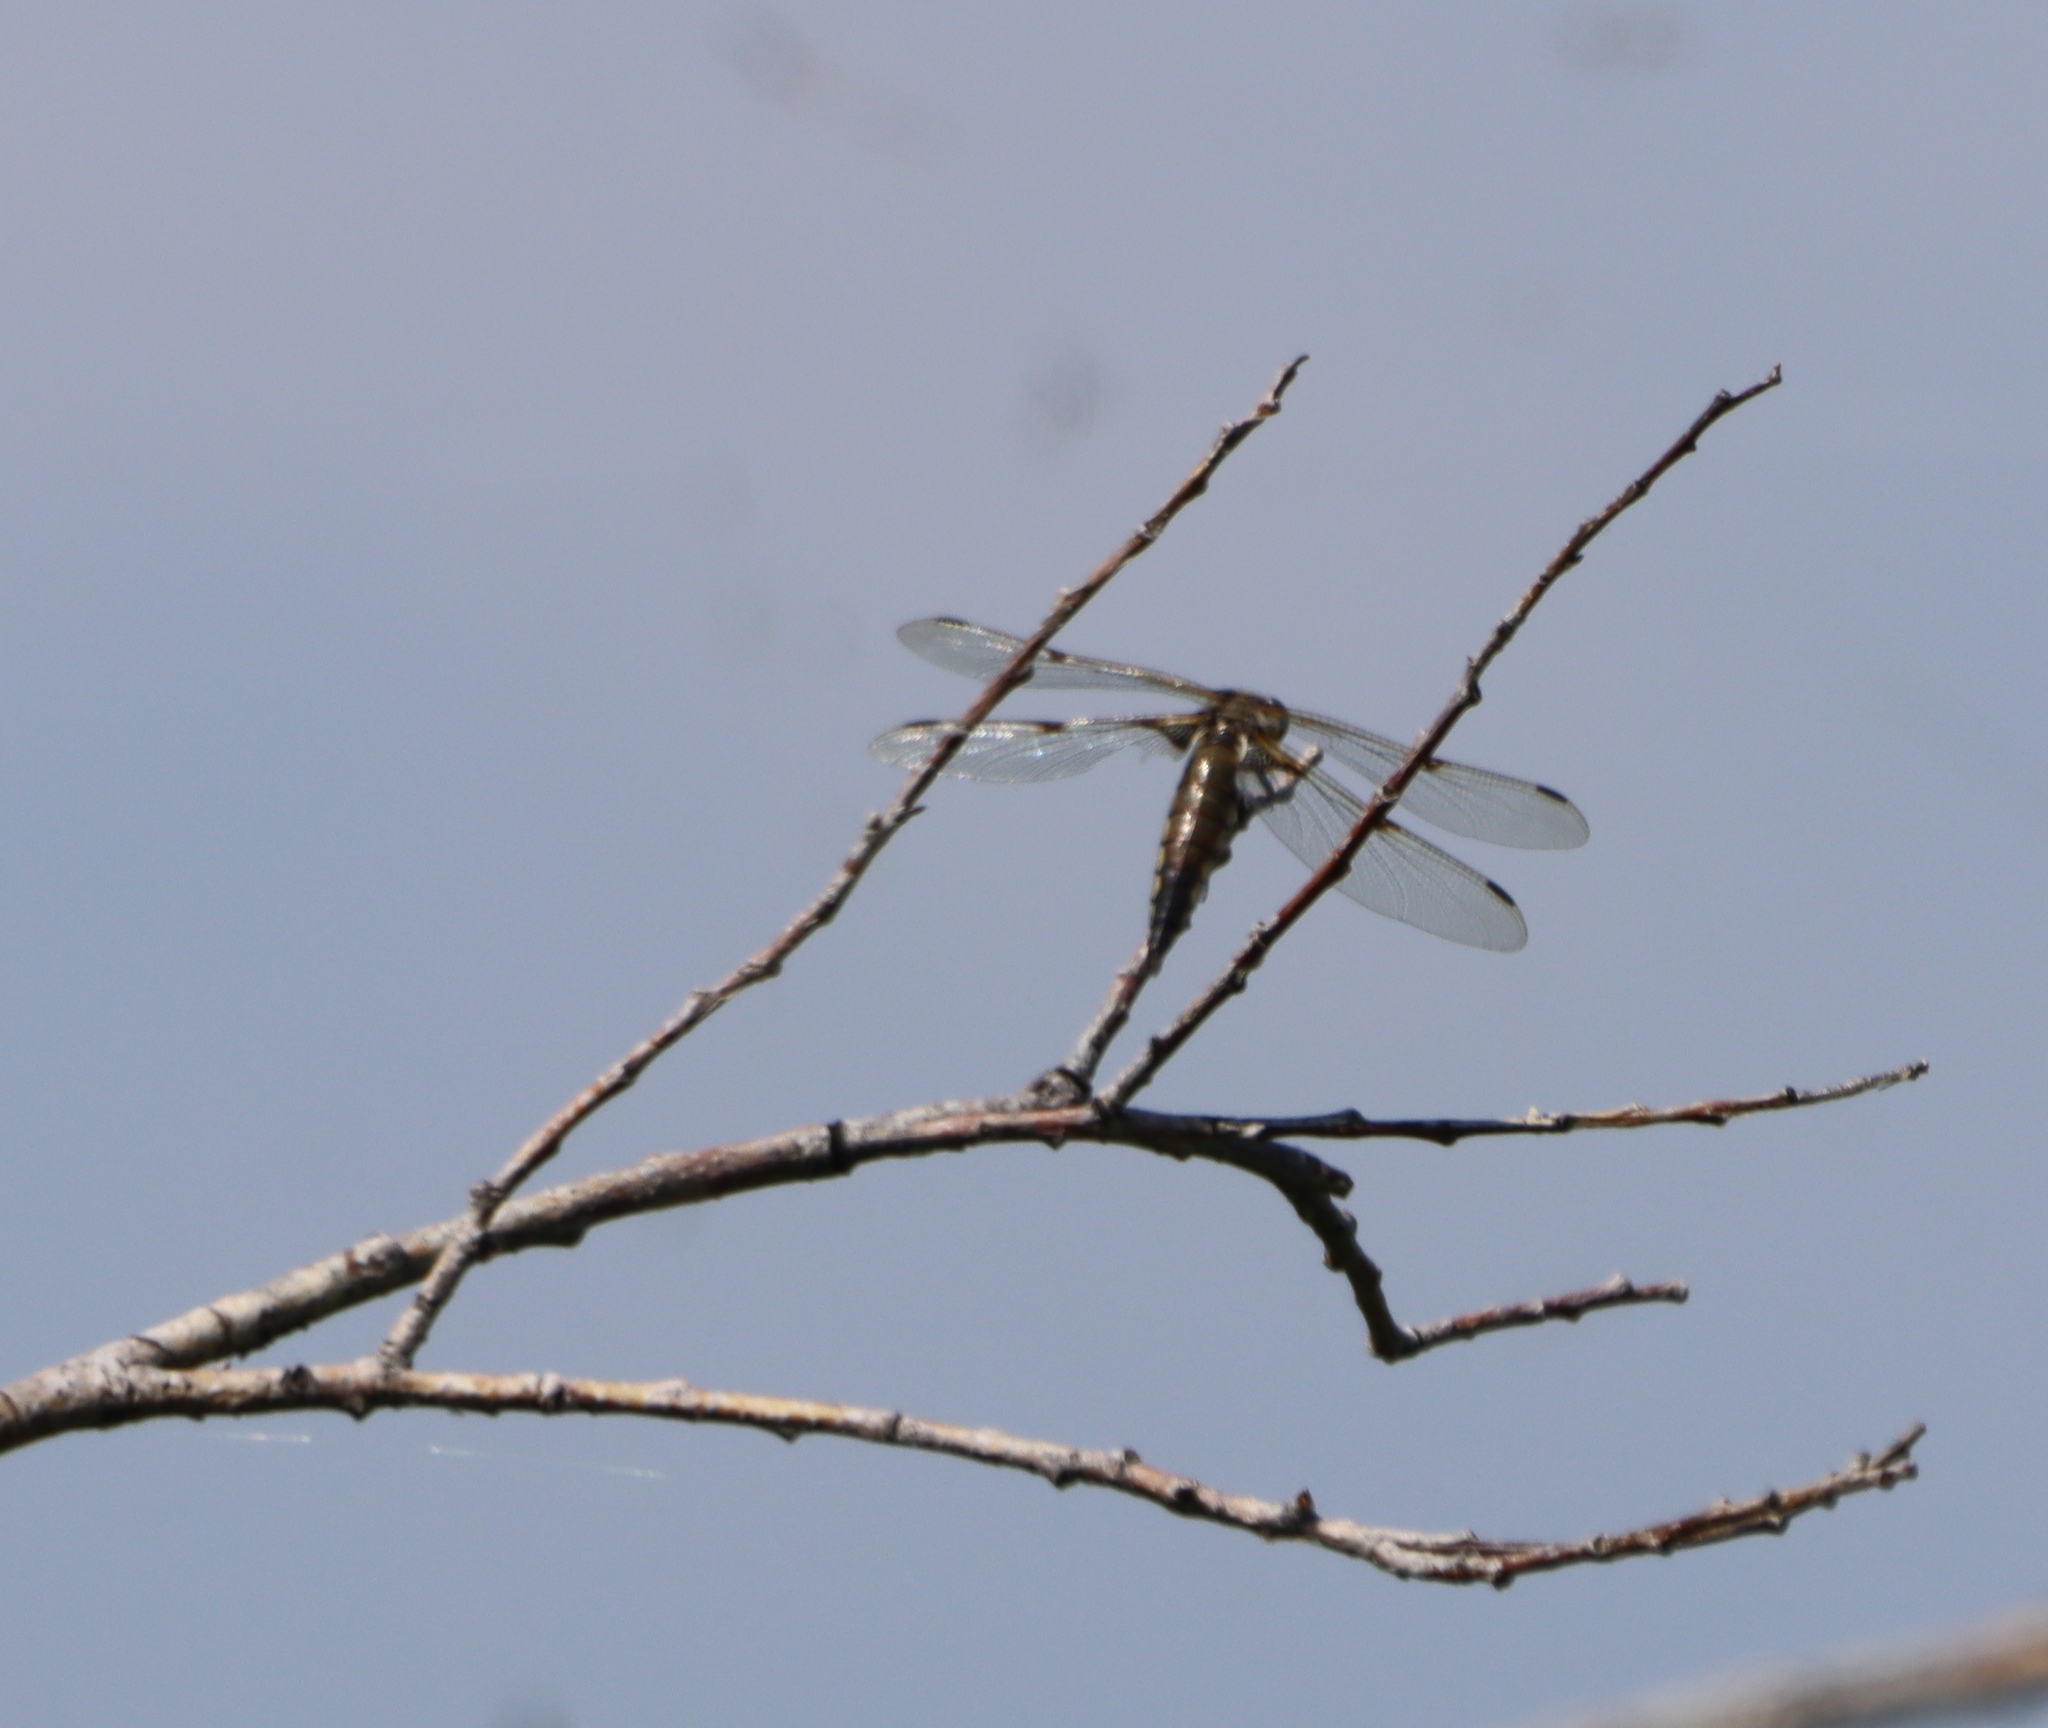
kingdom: Animalia
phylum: Arthropoda
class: Insecta
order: Odonata
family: Libellulidae
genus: Libellula
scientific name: Libellula quadrimaculata
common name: Four-spotted chaser
